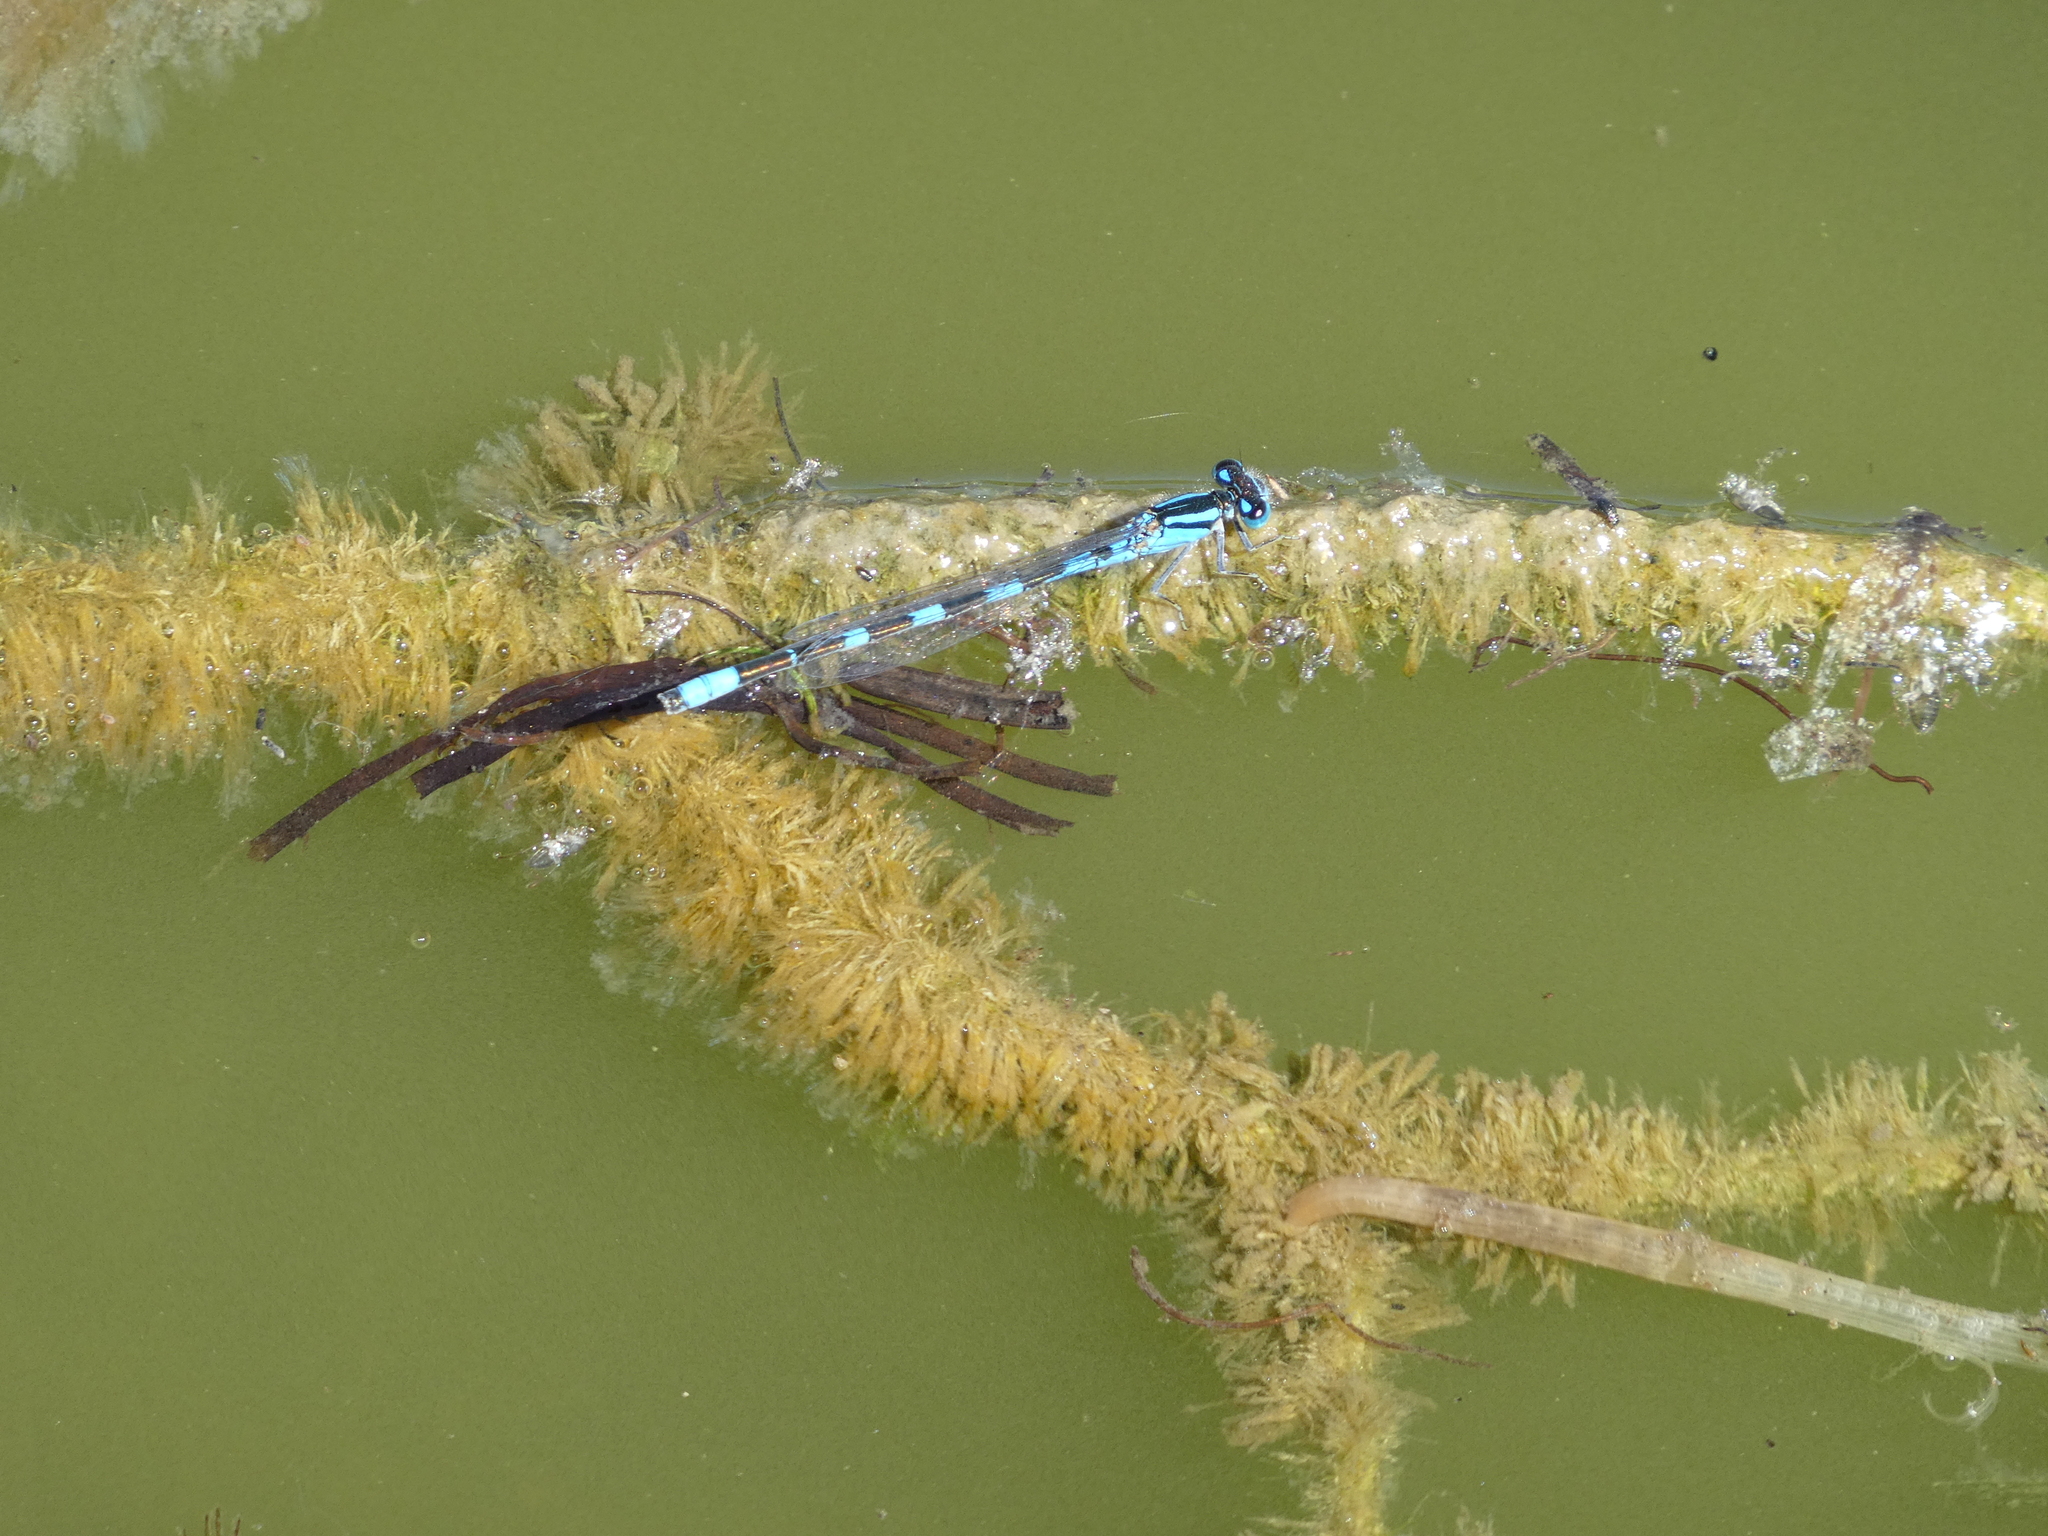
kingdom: Animalia
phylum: Arthropoda
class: Insecta
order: Odonata
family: Coenagrionidae
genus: Enallagma
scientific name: Enallagma carunculatum
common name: Tule bluet
